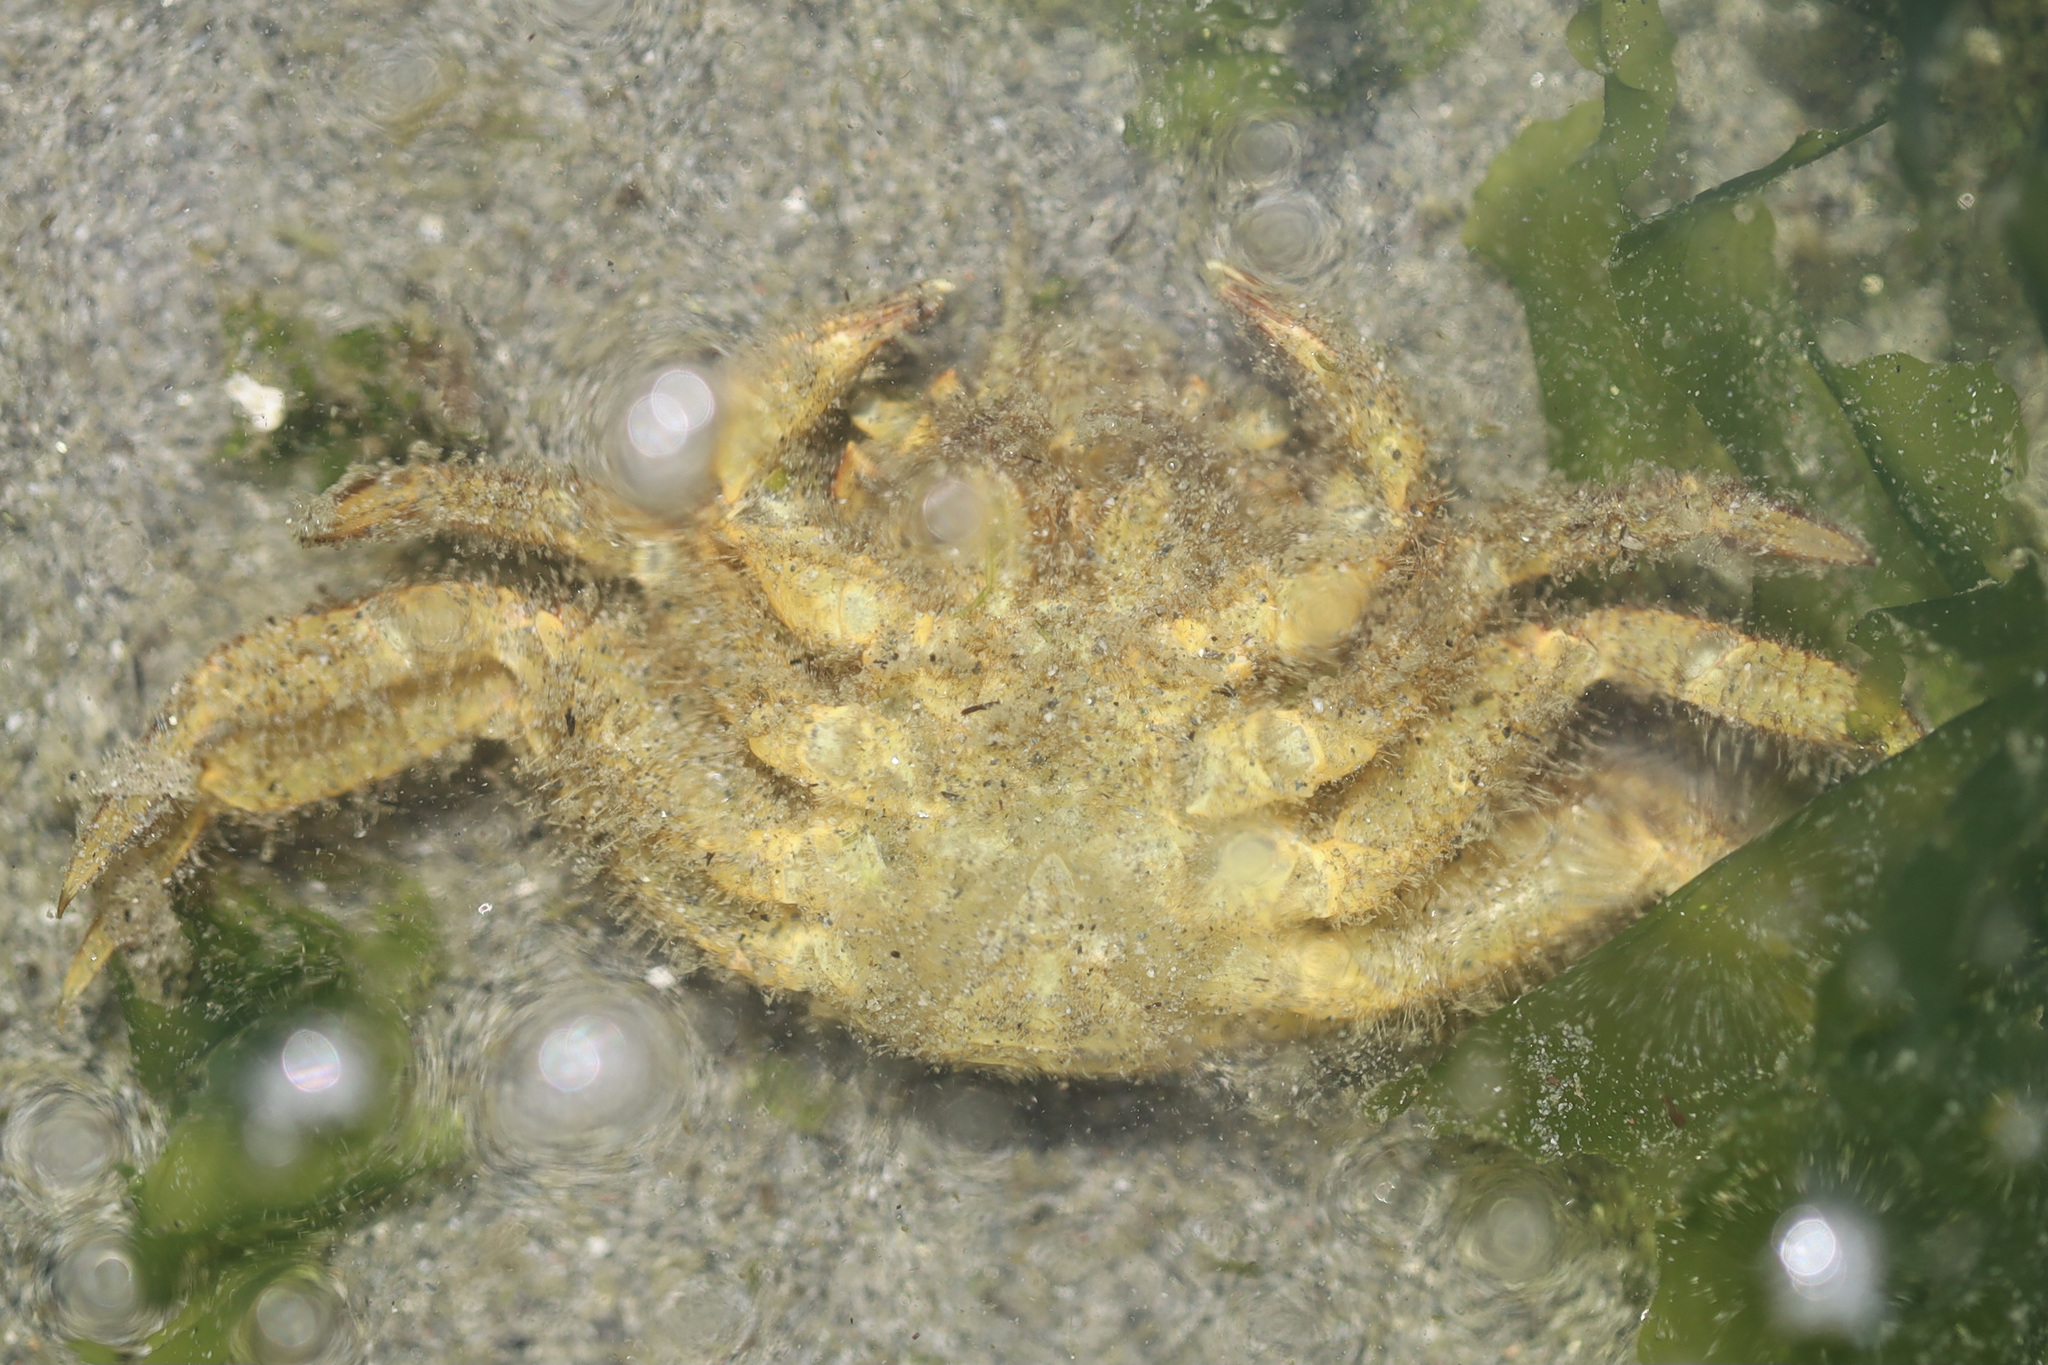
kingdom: Animalia
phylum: Arthropoda
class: Malacostraca
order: Decapoda
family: Cheiragonidae
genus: Telmessus
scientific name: Telmessus cheiragonus
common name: Helmet crab
